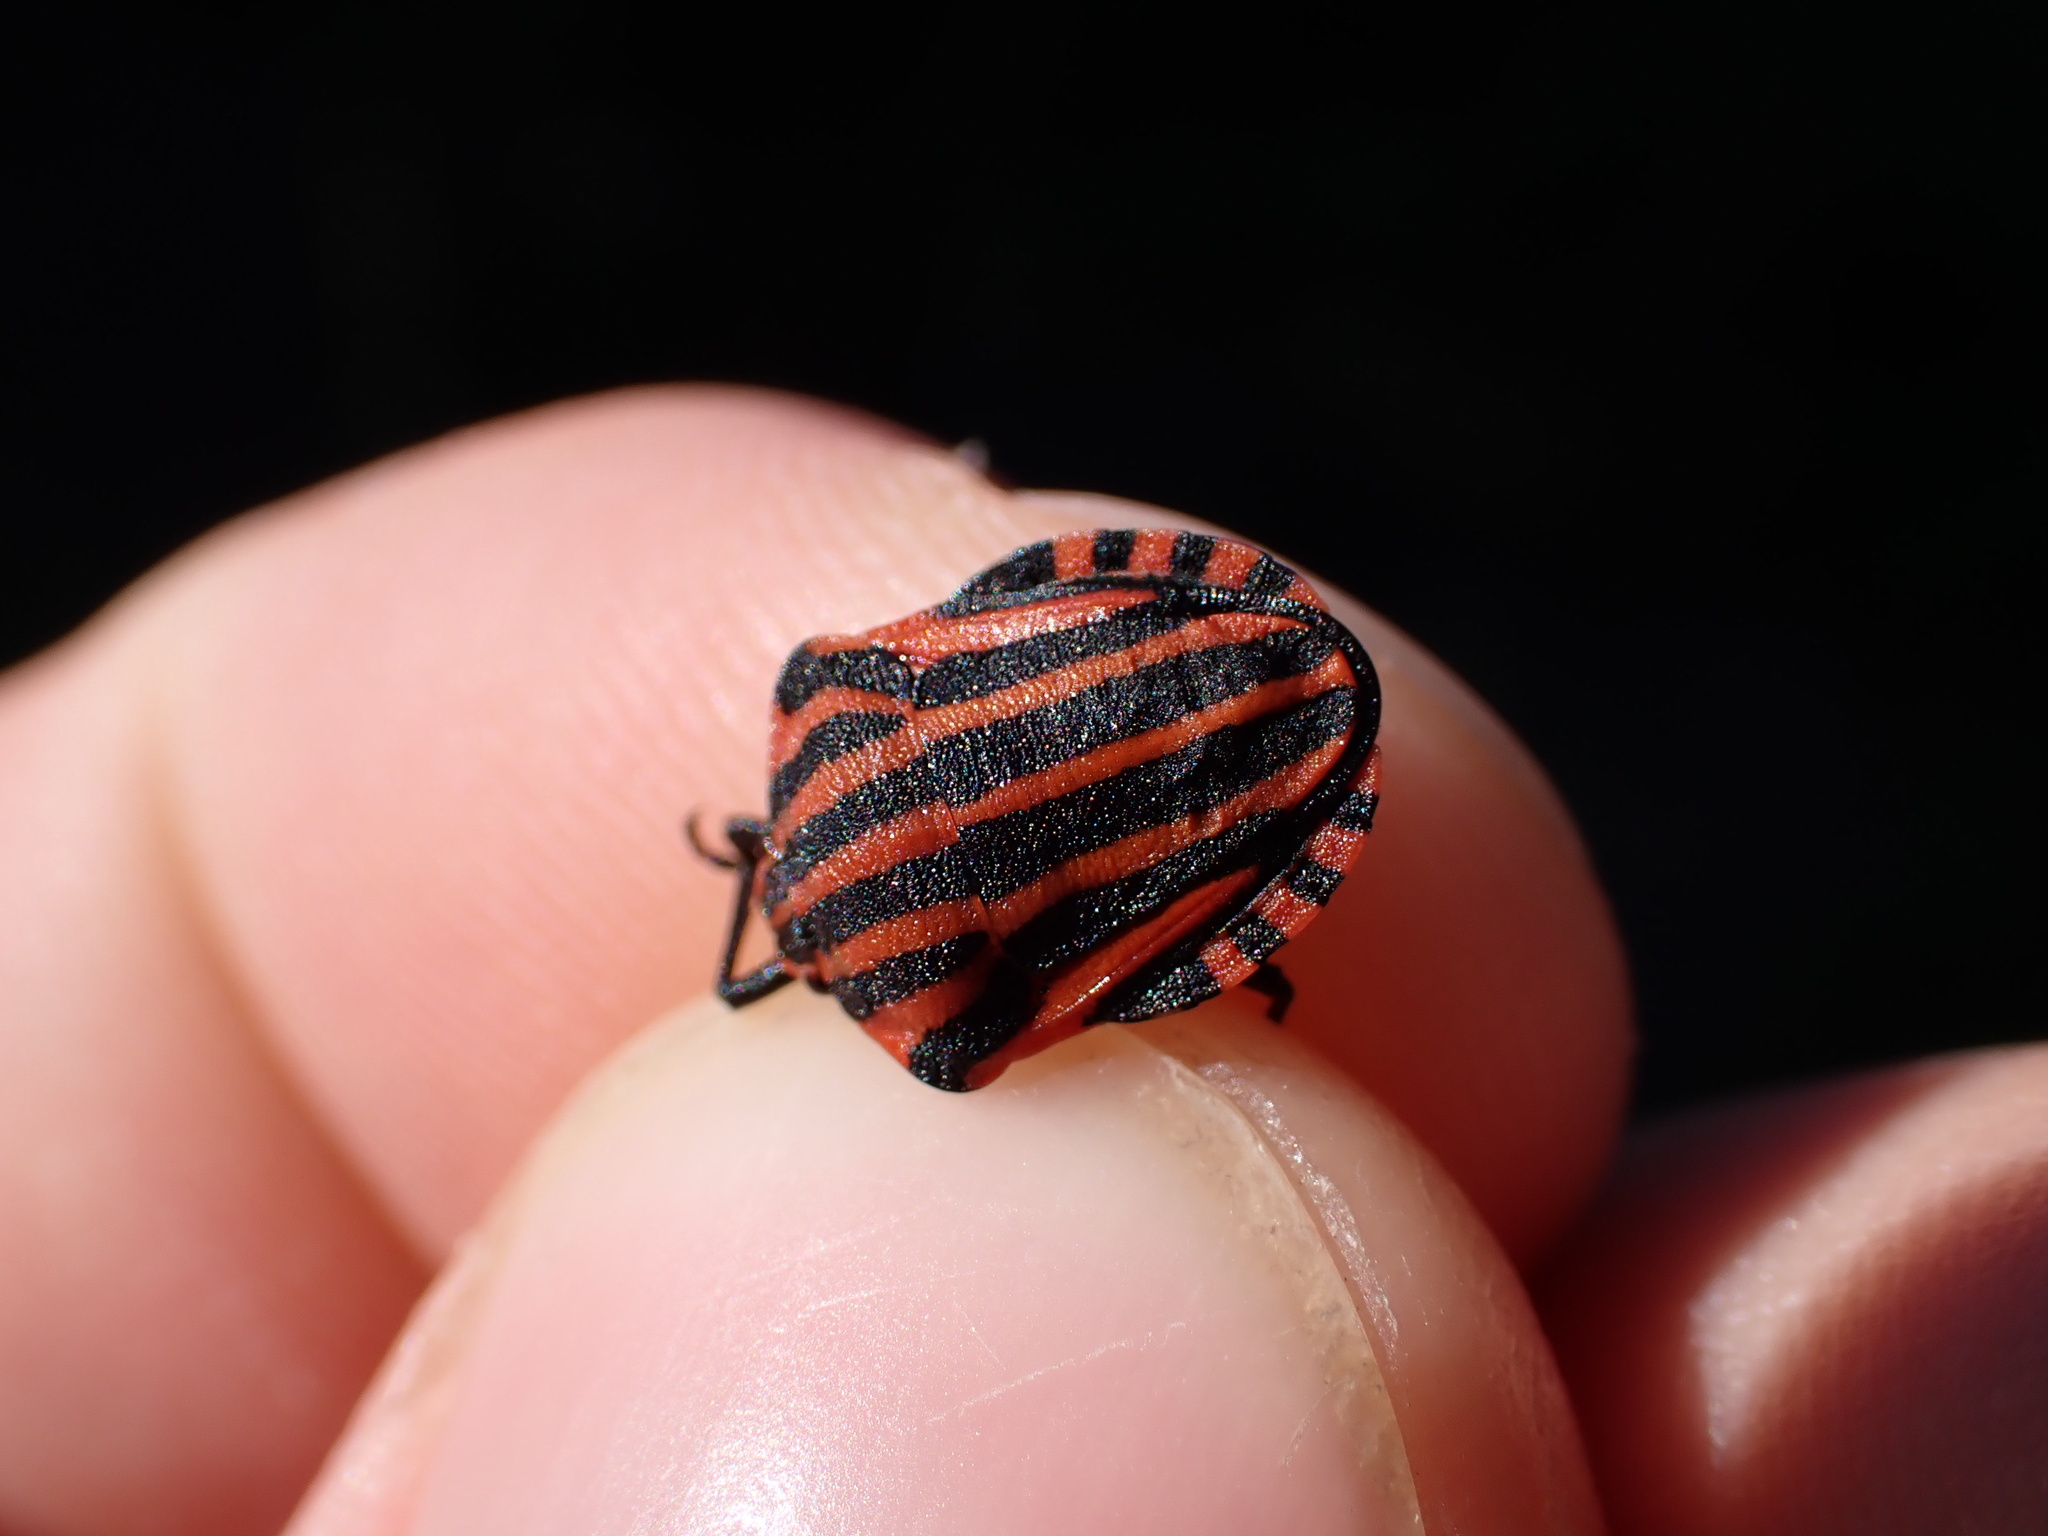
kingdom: Animalia
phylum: Arthropoda
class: Insecta
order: Hemiptera
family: Pentatomidae
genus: Graphosoma
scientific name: Graphosoma italicum
